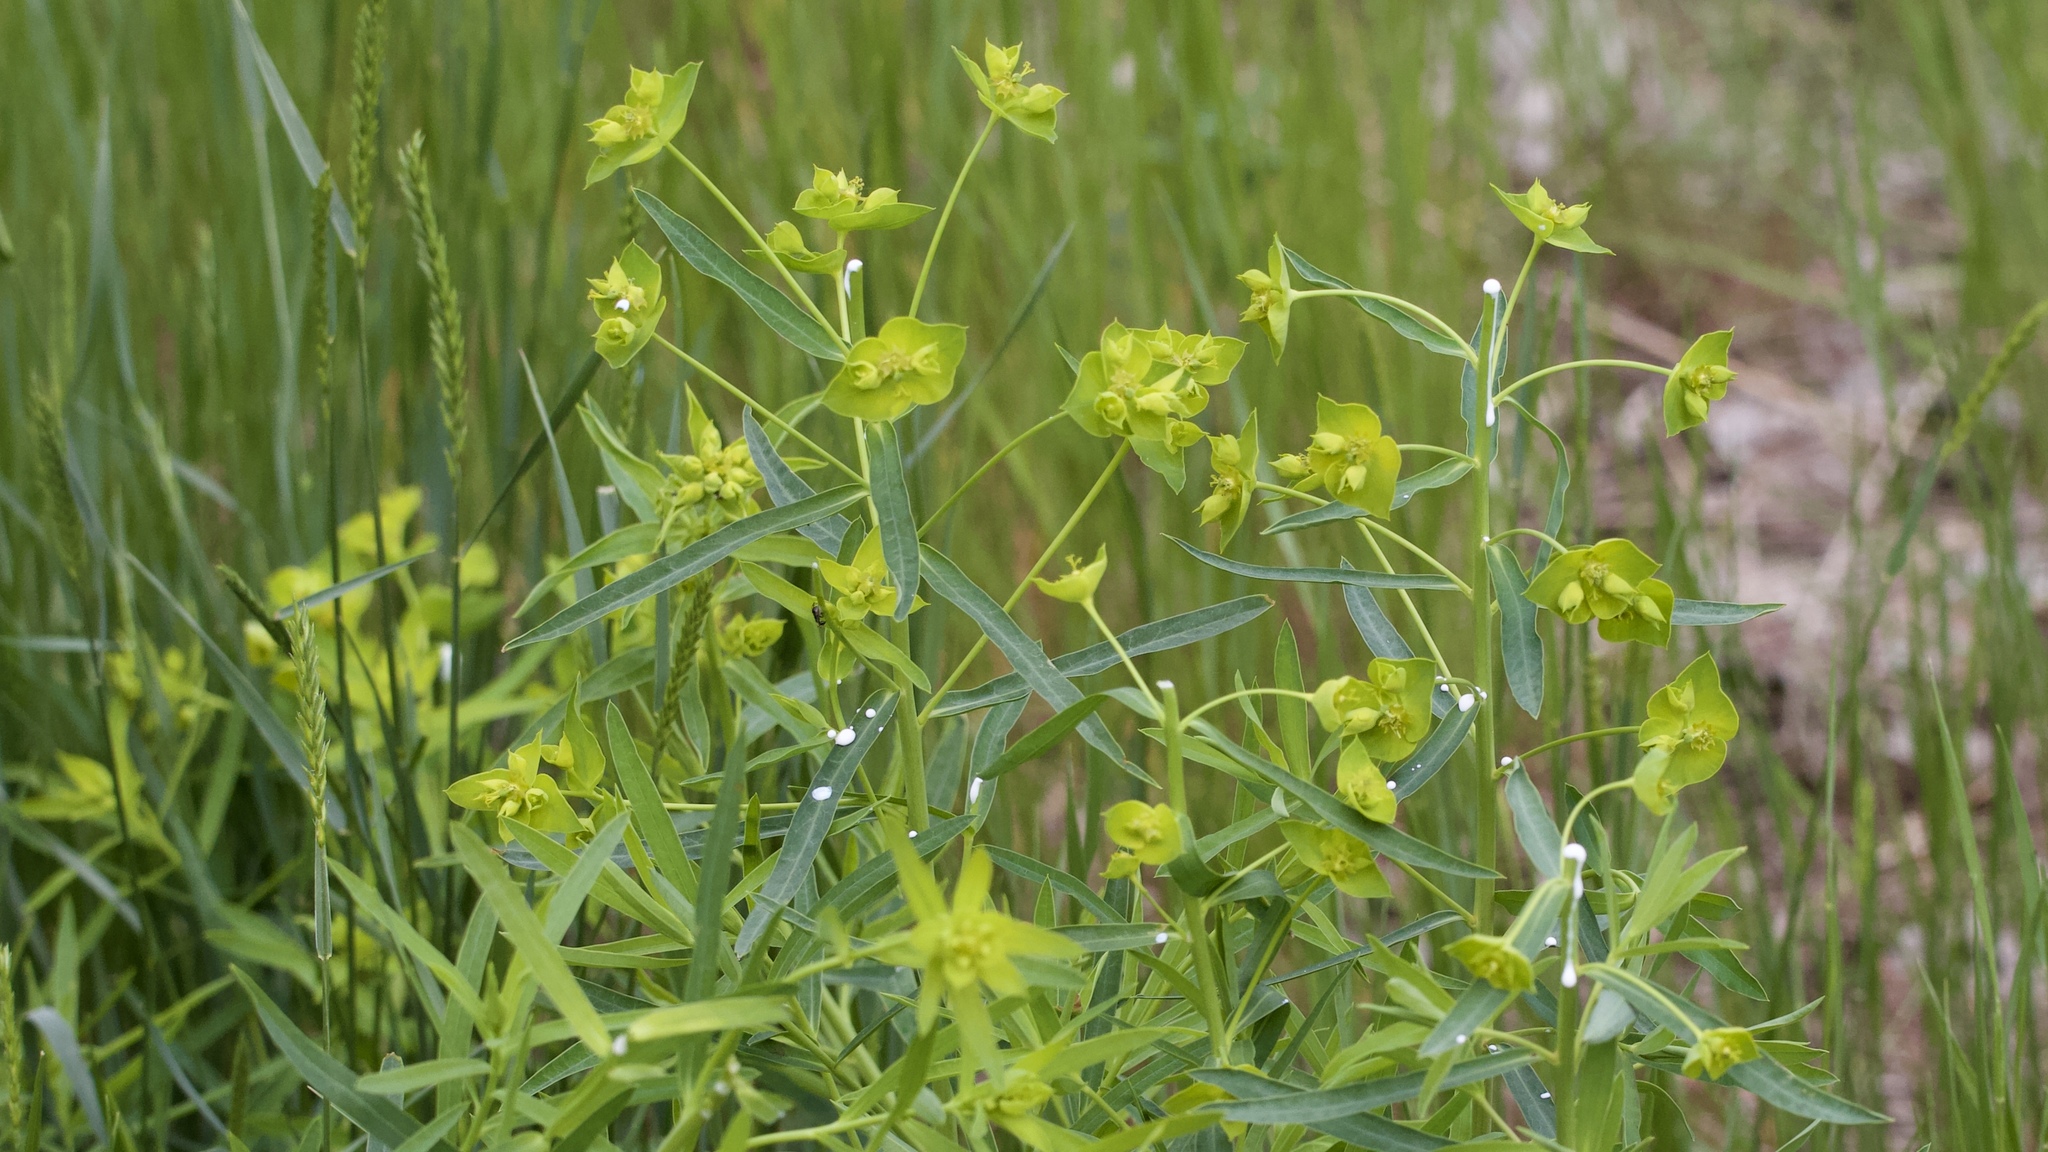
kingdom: Plantae
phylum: Tracheophyta
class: Magnoliopsida
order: Malpighiales
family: Euphorbiaceae
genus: Euphorbia
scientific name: Euphorbia virgata
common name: Leafy spurge
